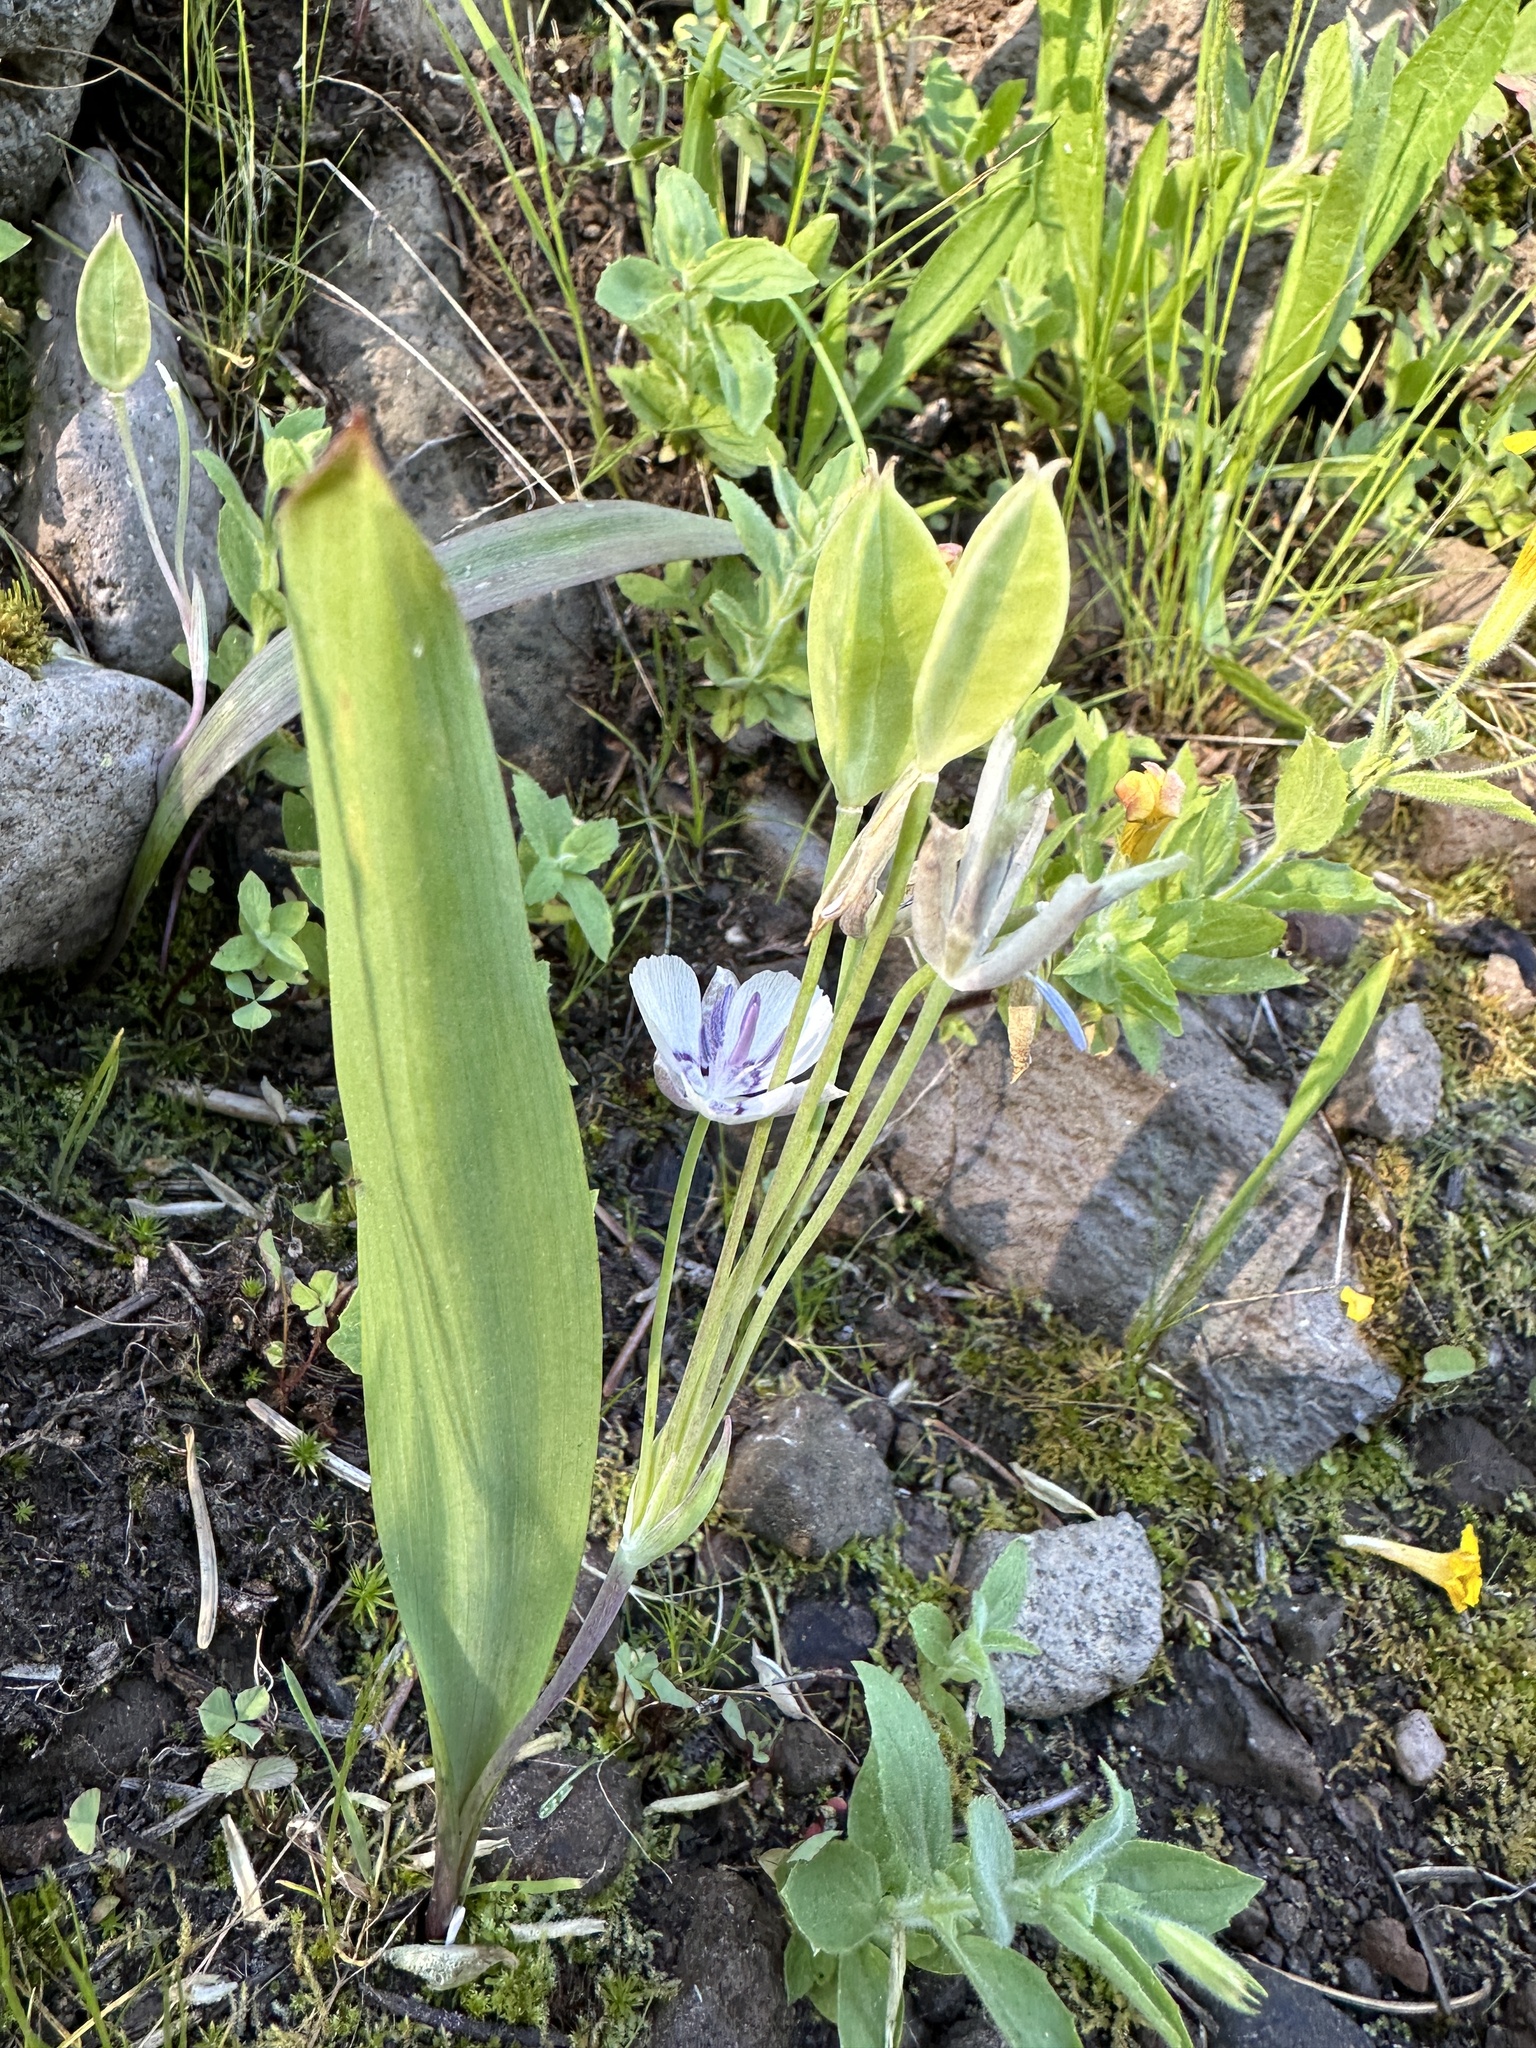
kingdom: Plantae
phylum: Tracheophyta
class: Liliopsida
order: Liliales
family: Liliaceae
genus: Calochortus
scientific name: Calochortus nudus
